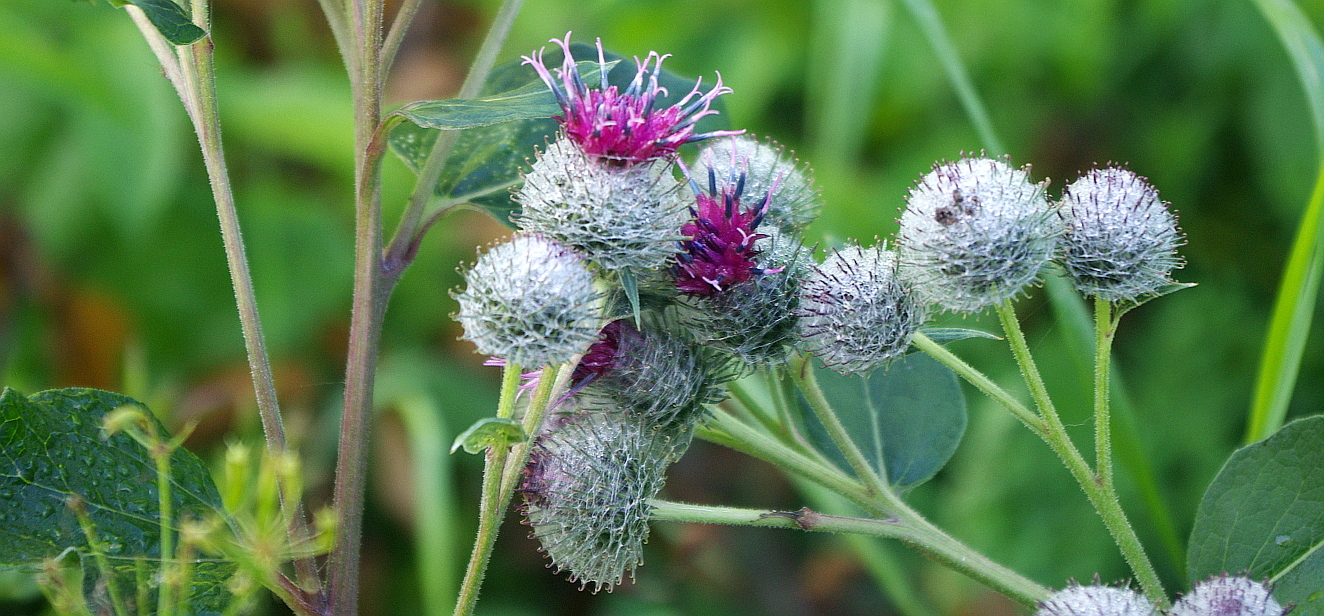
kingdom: Plantae
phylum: Tracheophyta
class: Magnoliopsida
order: Asterales
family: Asteraceae
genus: Arctium
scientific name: Arctium tomentosum
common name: Woolly burdock
